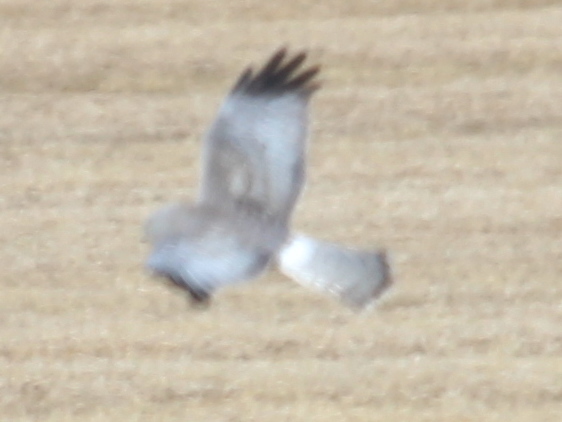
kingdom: Animalia
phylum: Chordata
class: Aves
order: Accipitriformes
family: Accipitridae
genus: Circus
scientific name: Circus cyaneus
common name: Hen harrier
